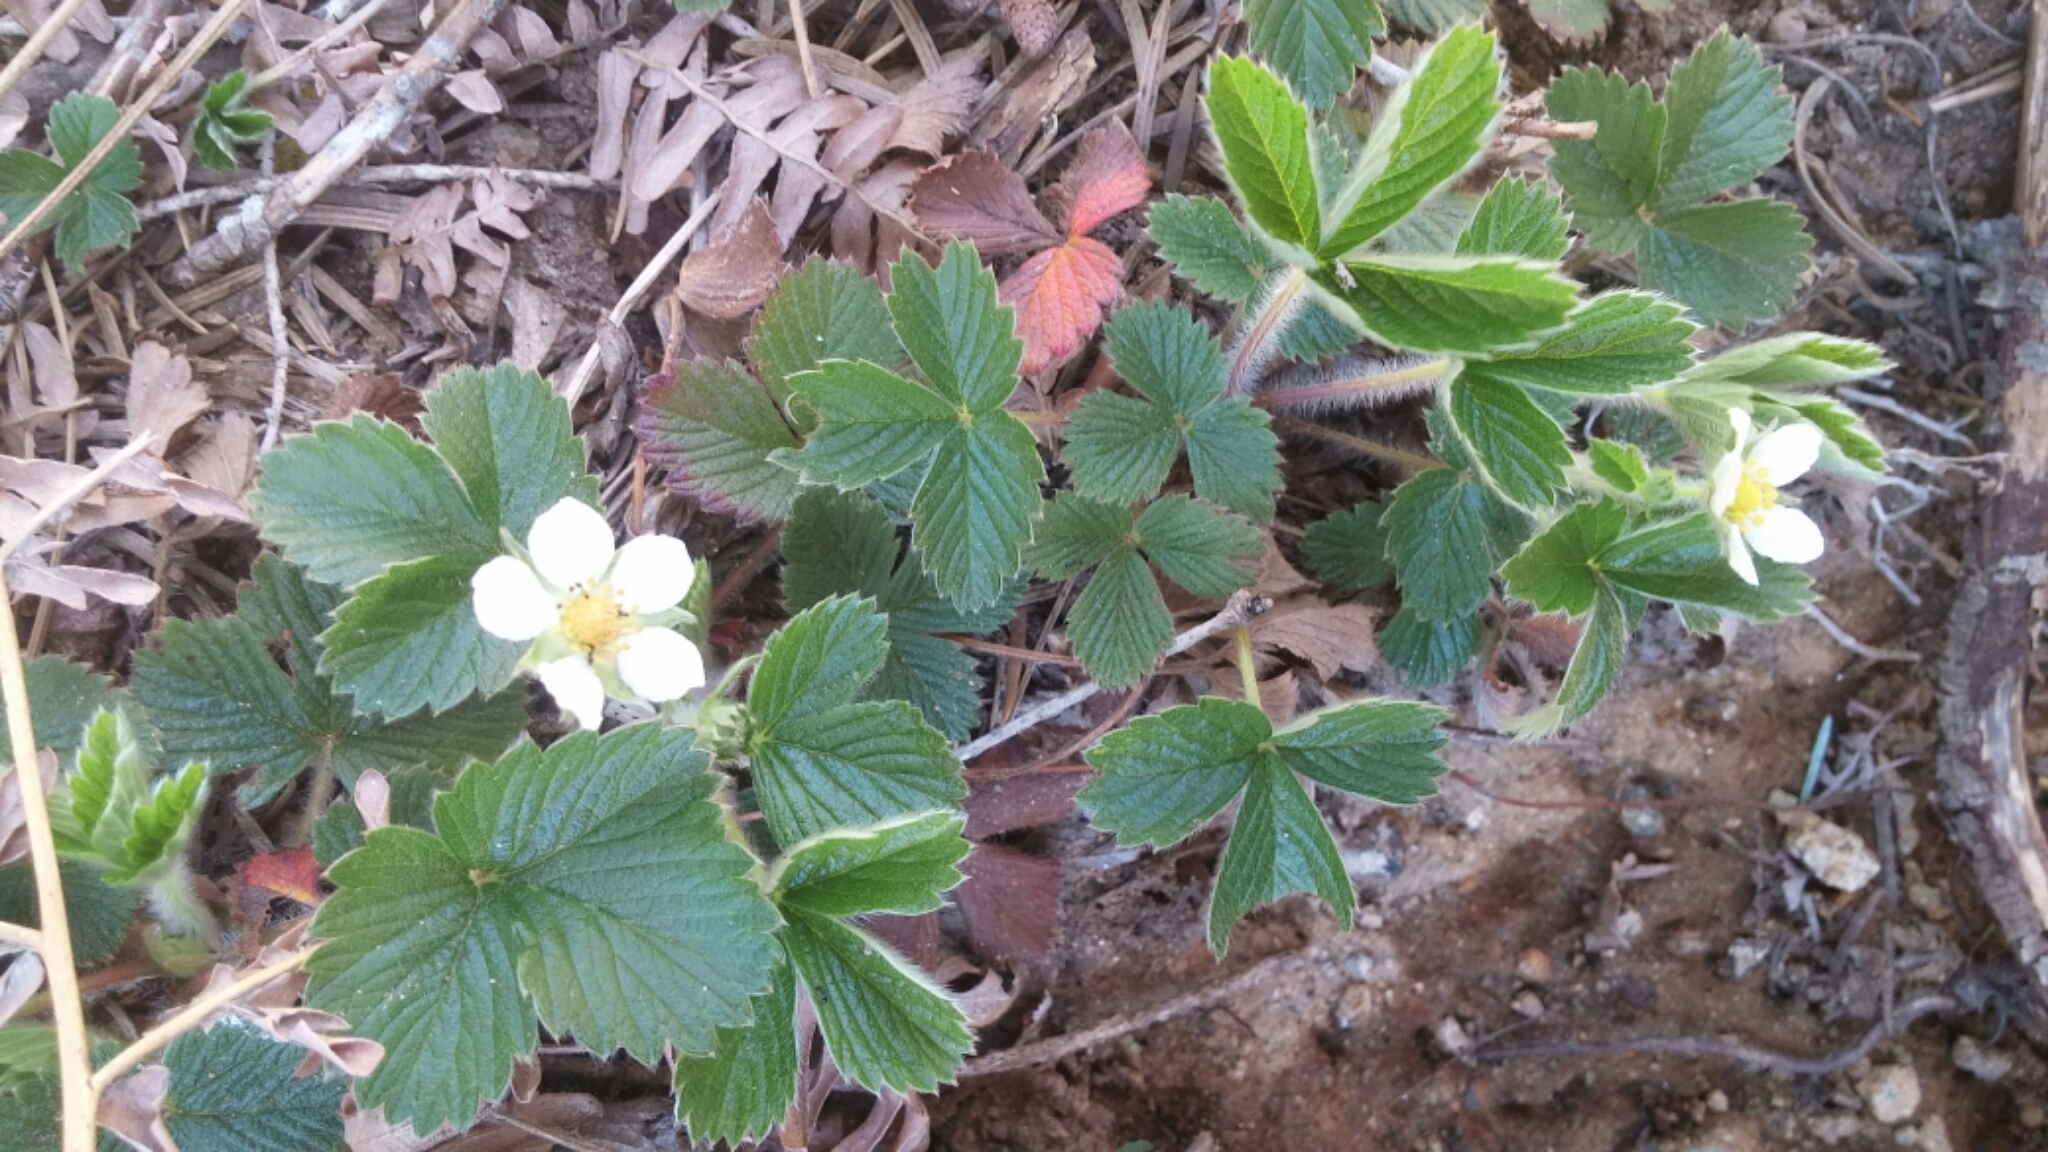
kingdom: Plantae
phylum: Tracheophyta
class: Magnoliopsida
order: Rosales
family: Rosaceae
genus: Fragaria
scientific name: Fragaria vesca
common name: Wild strawberry
